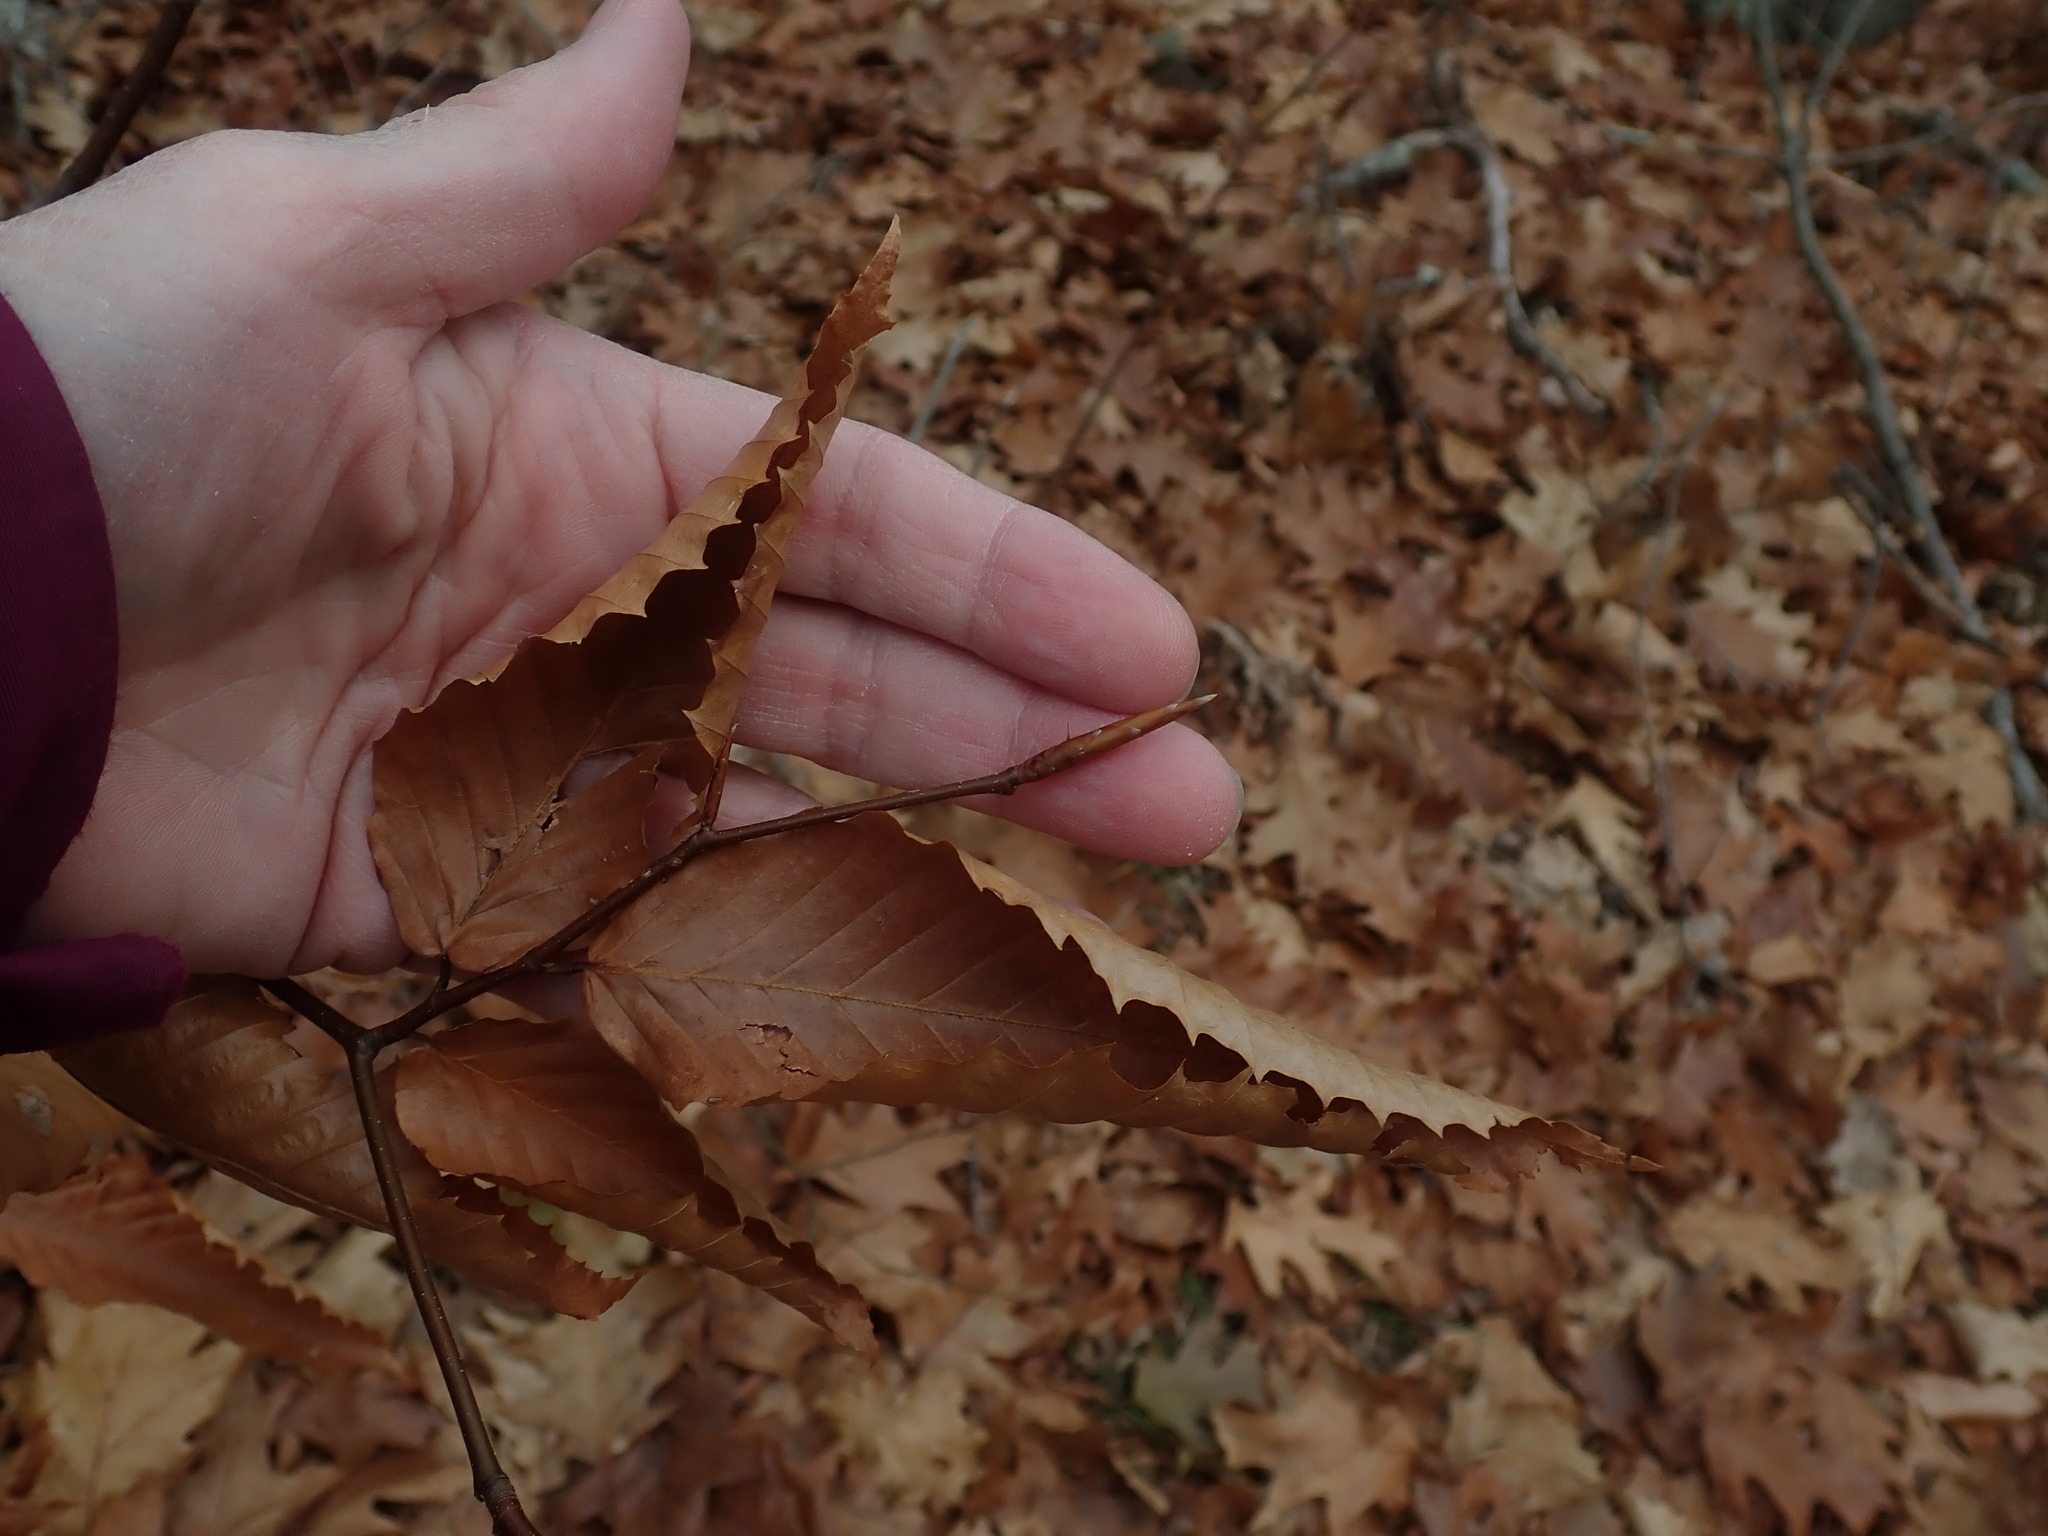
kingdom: Plantae
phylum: Tracheophyta
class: Magnoliopsida
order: Fagales
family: Fagaceae
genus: Fagus
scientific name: Fagus grandifolia
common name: American beech
